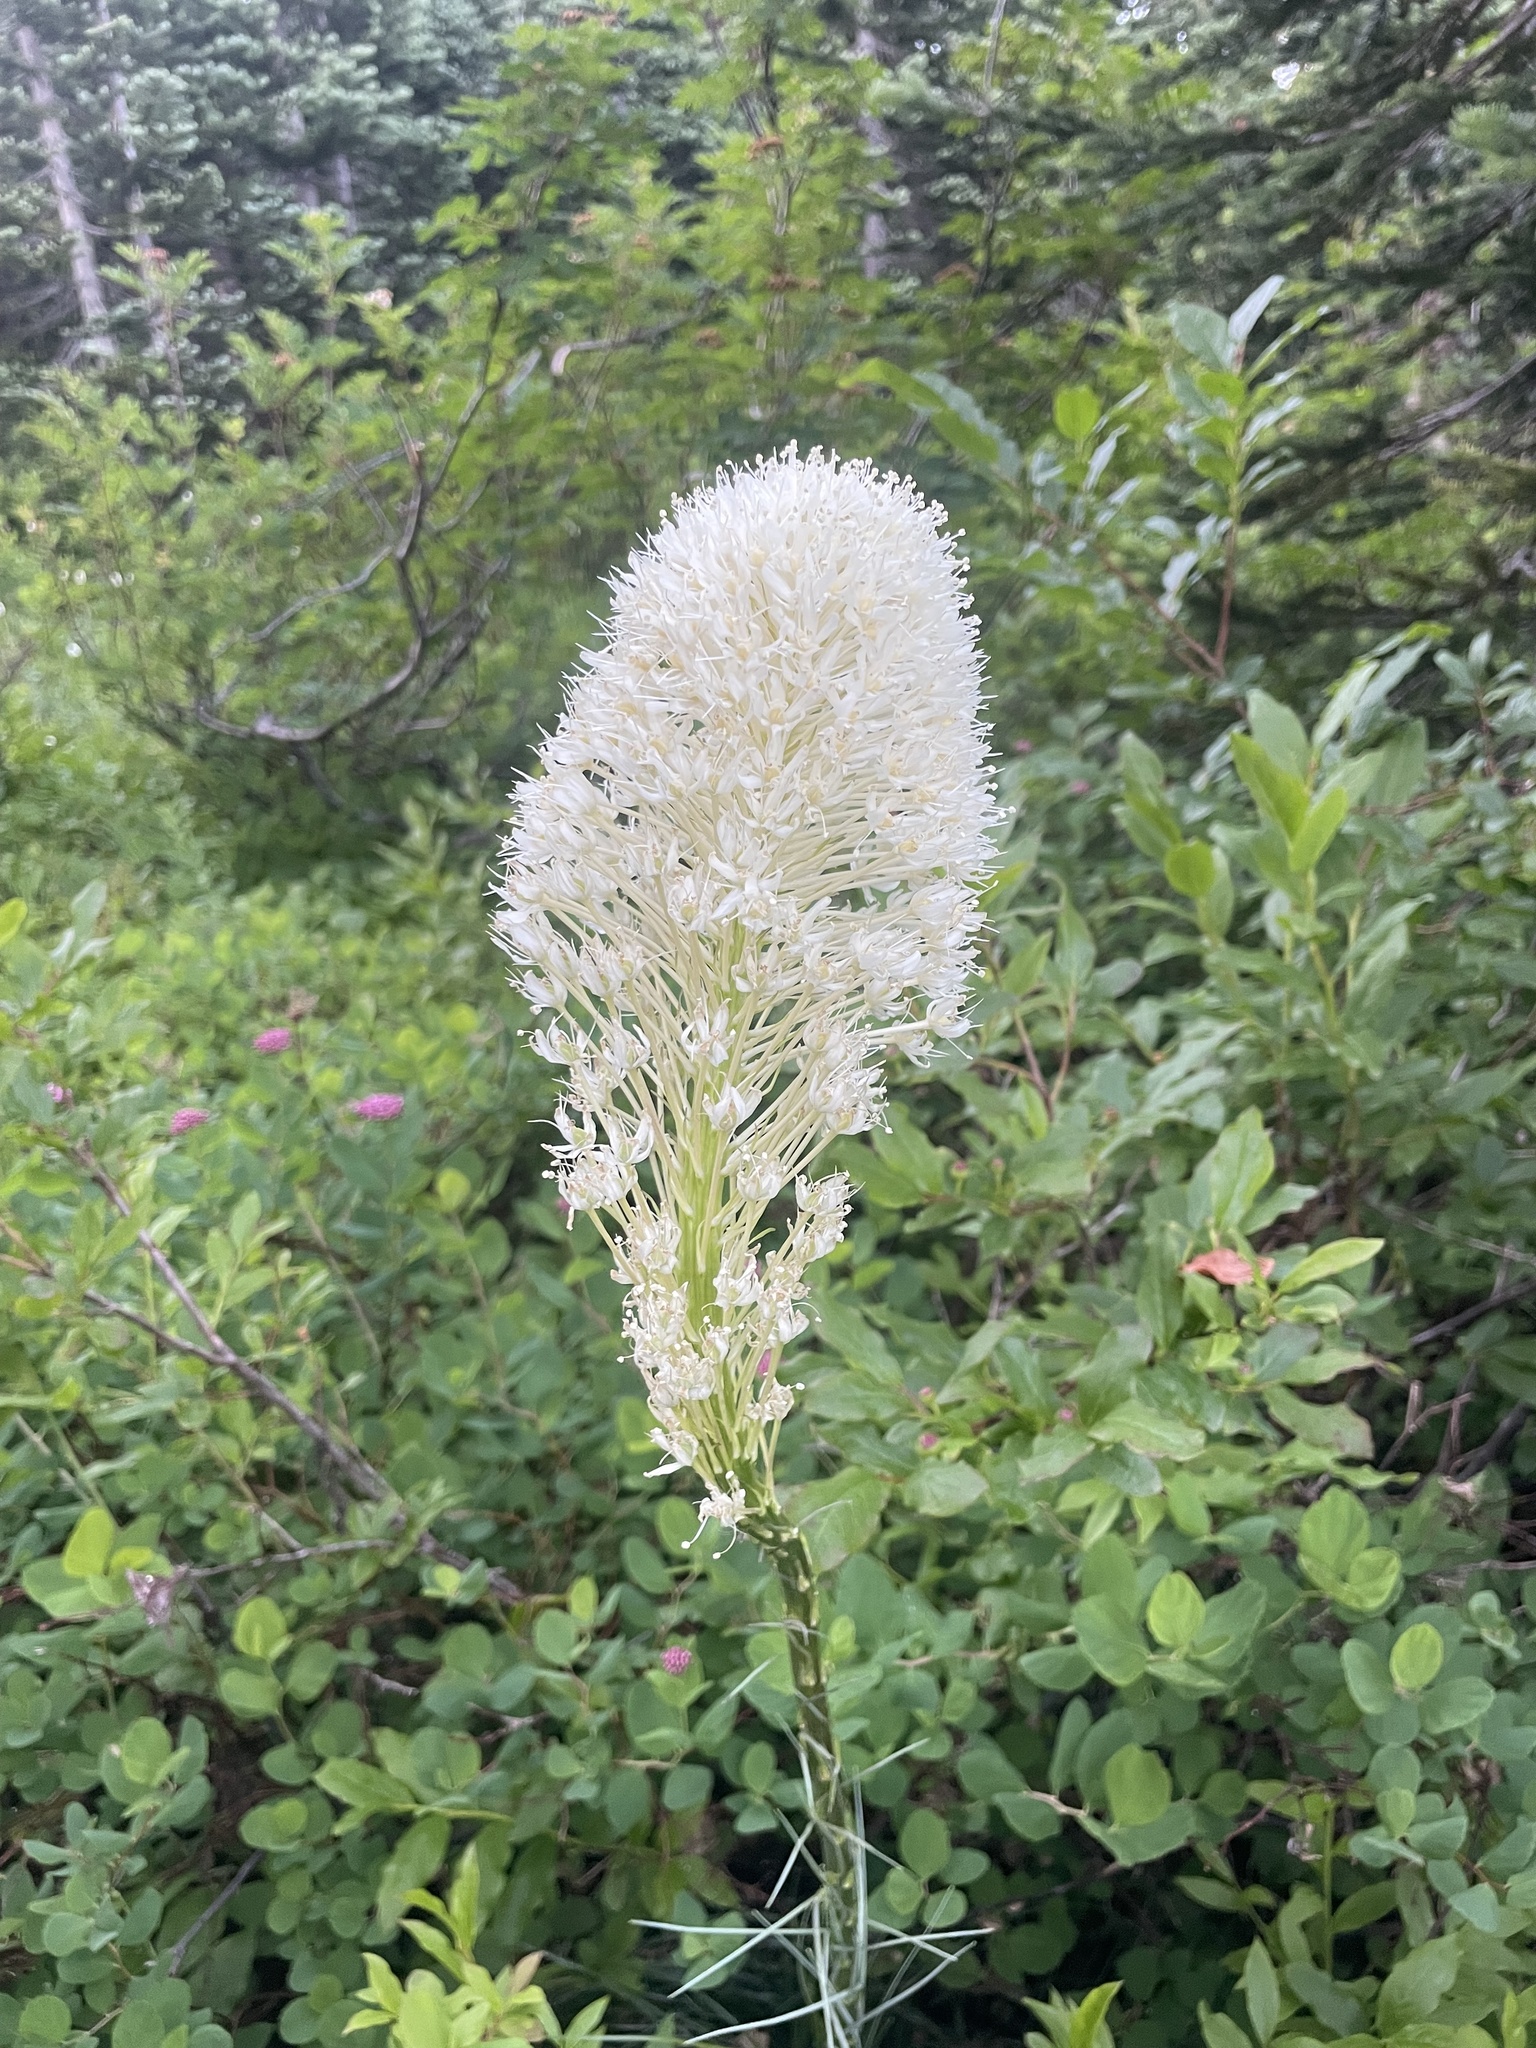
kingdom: Plantae
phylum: Tracheophyta
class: Liliopsida
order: Liliales
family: Melanthiaceae
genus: Xerophyllum
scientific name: Xerophyllum tenax
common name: Bear-grass
